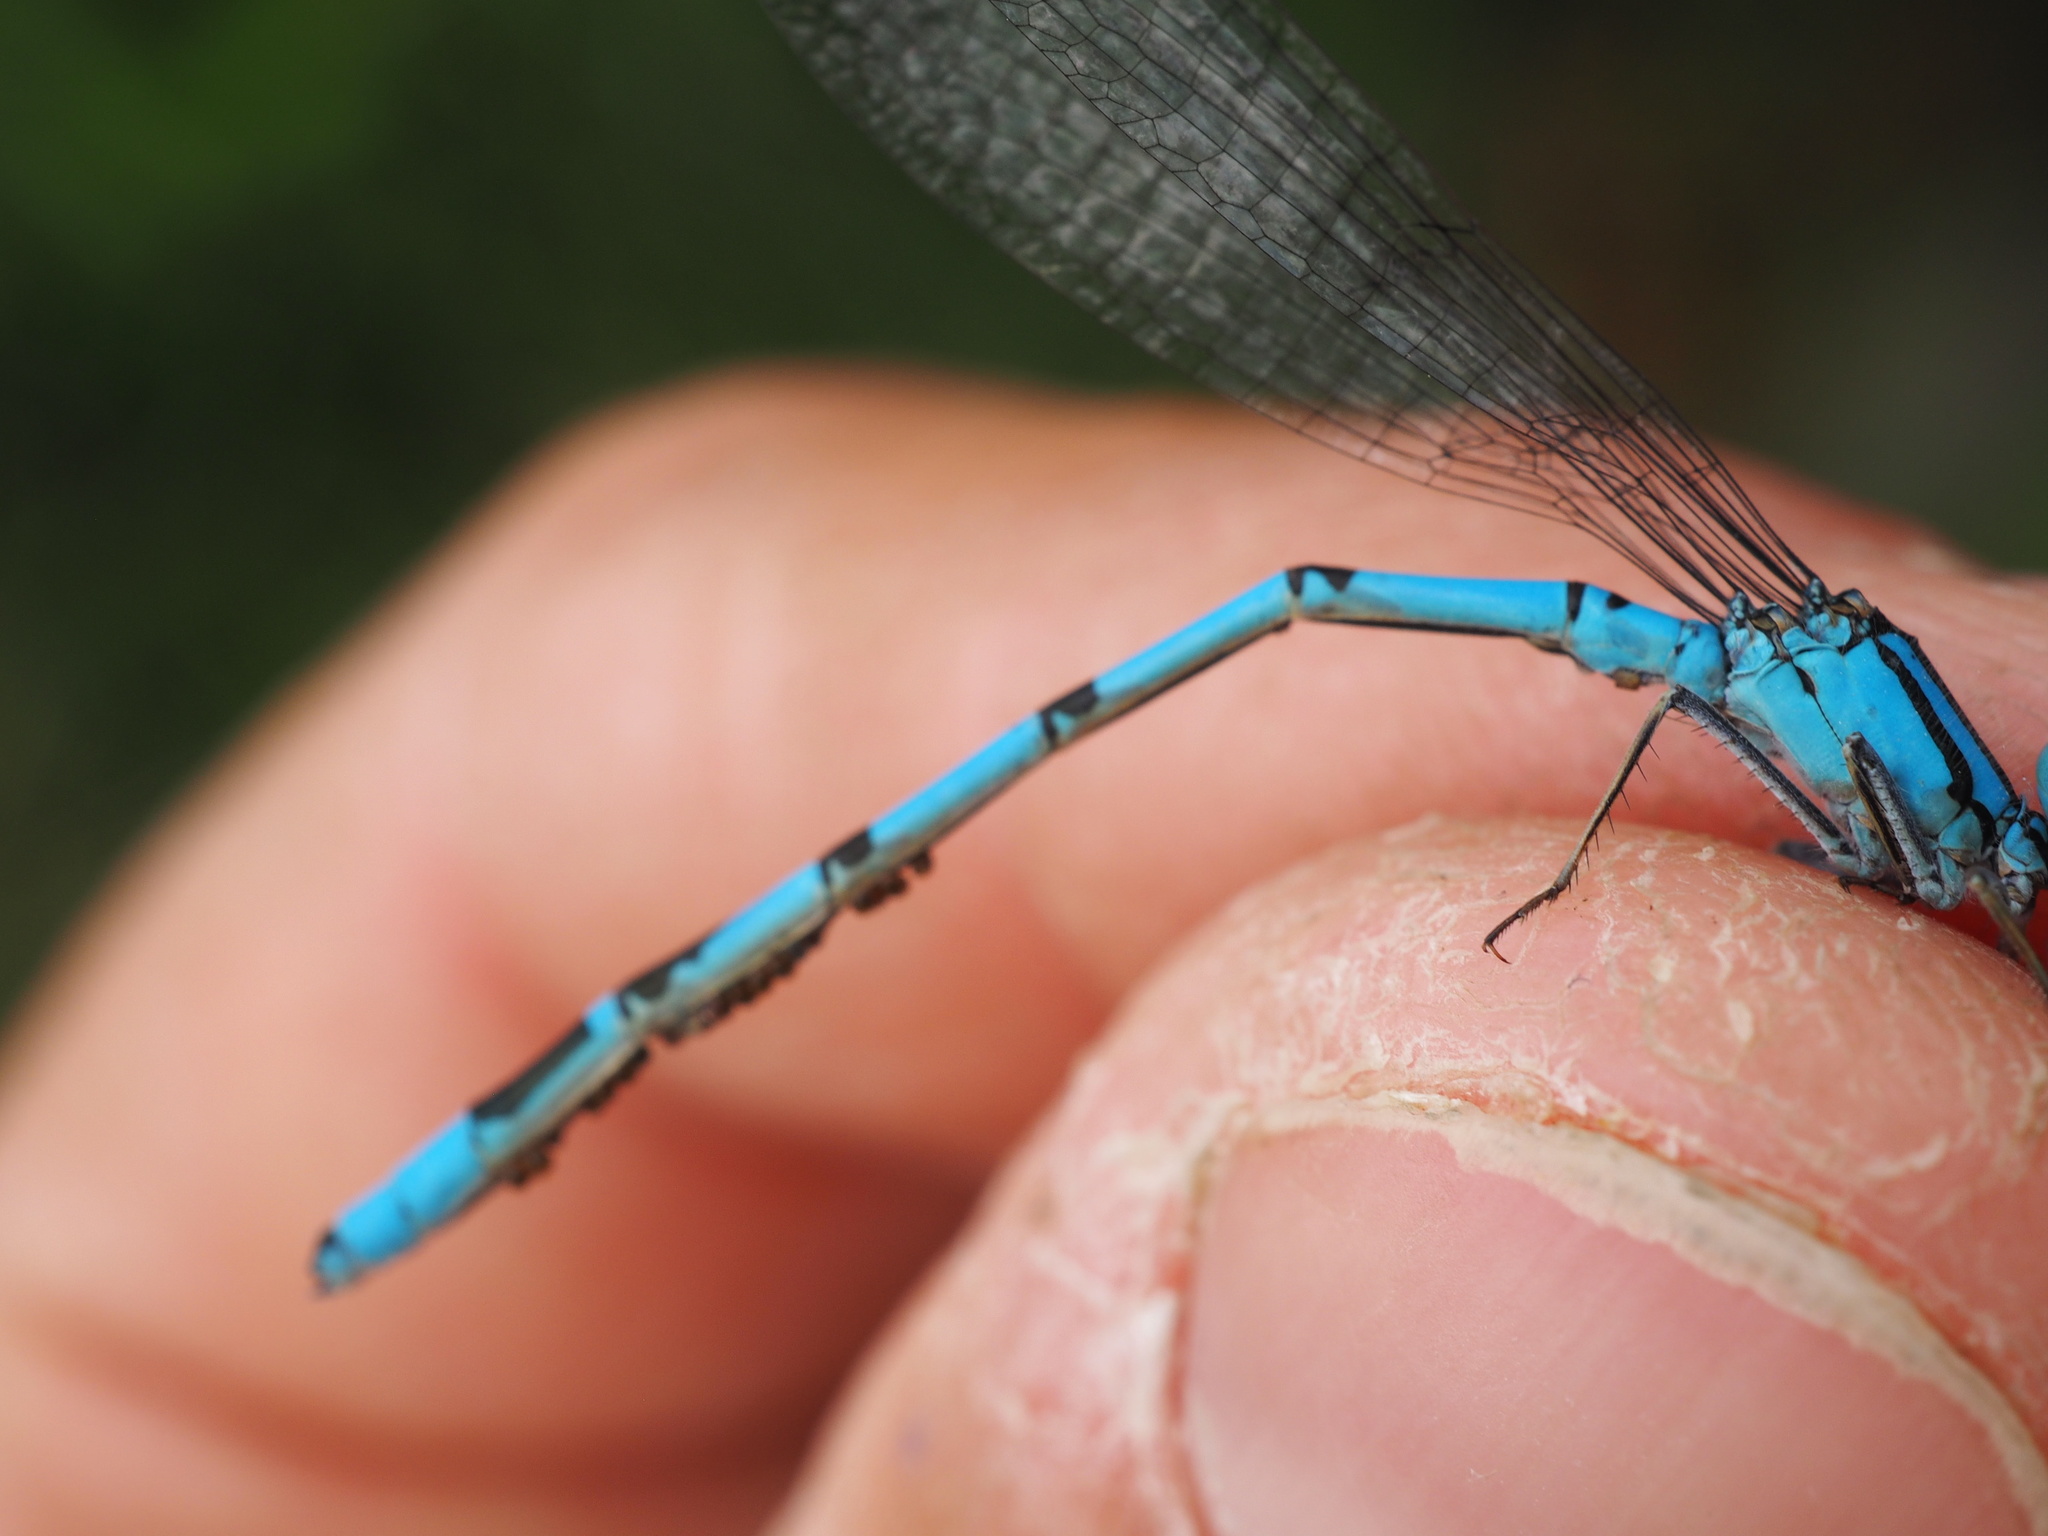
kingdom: Animalia
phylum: Arthropoda
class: Insecta
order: Odonata
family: Coenagrionidae
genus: Enallagma
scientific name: Enallagma cyathigerum
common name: Common blue damselfly
